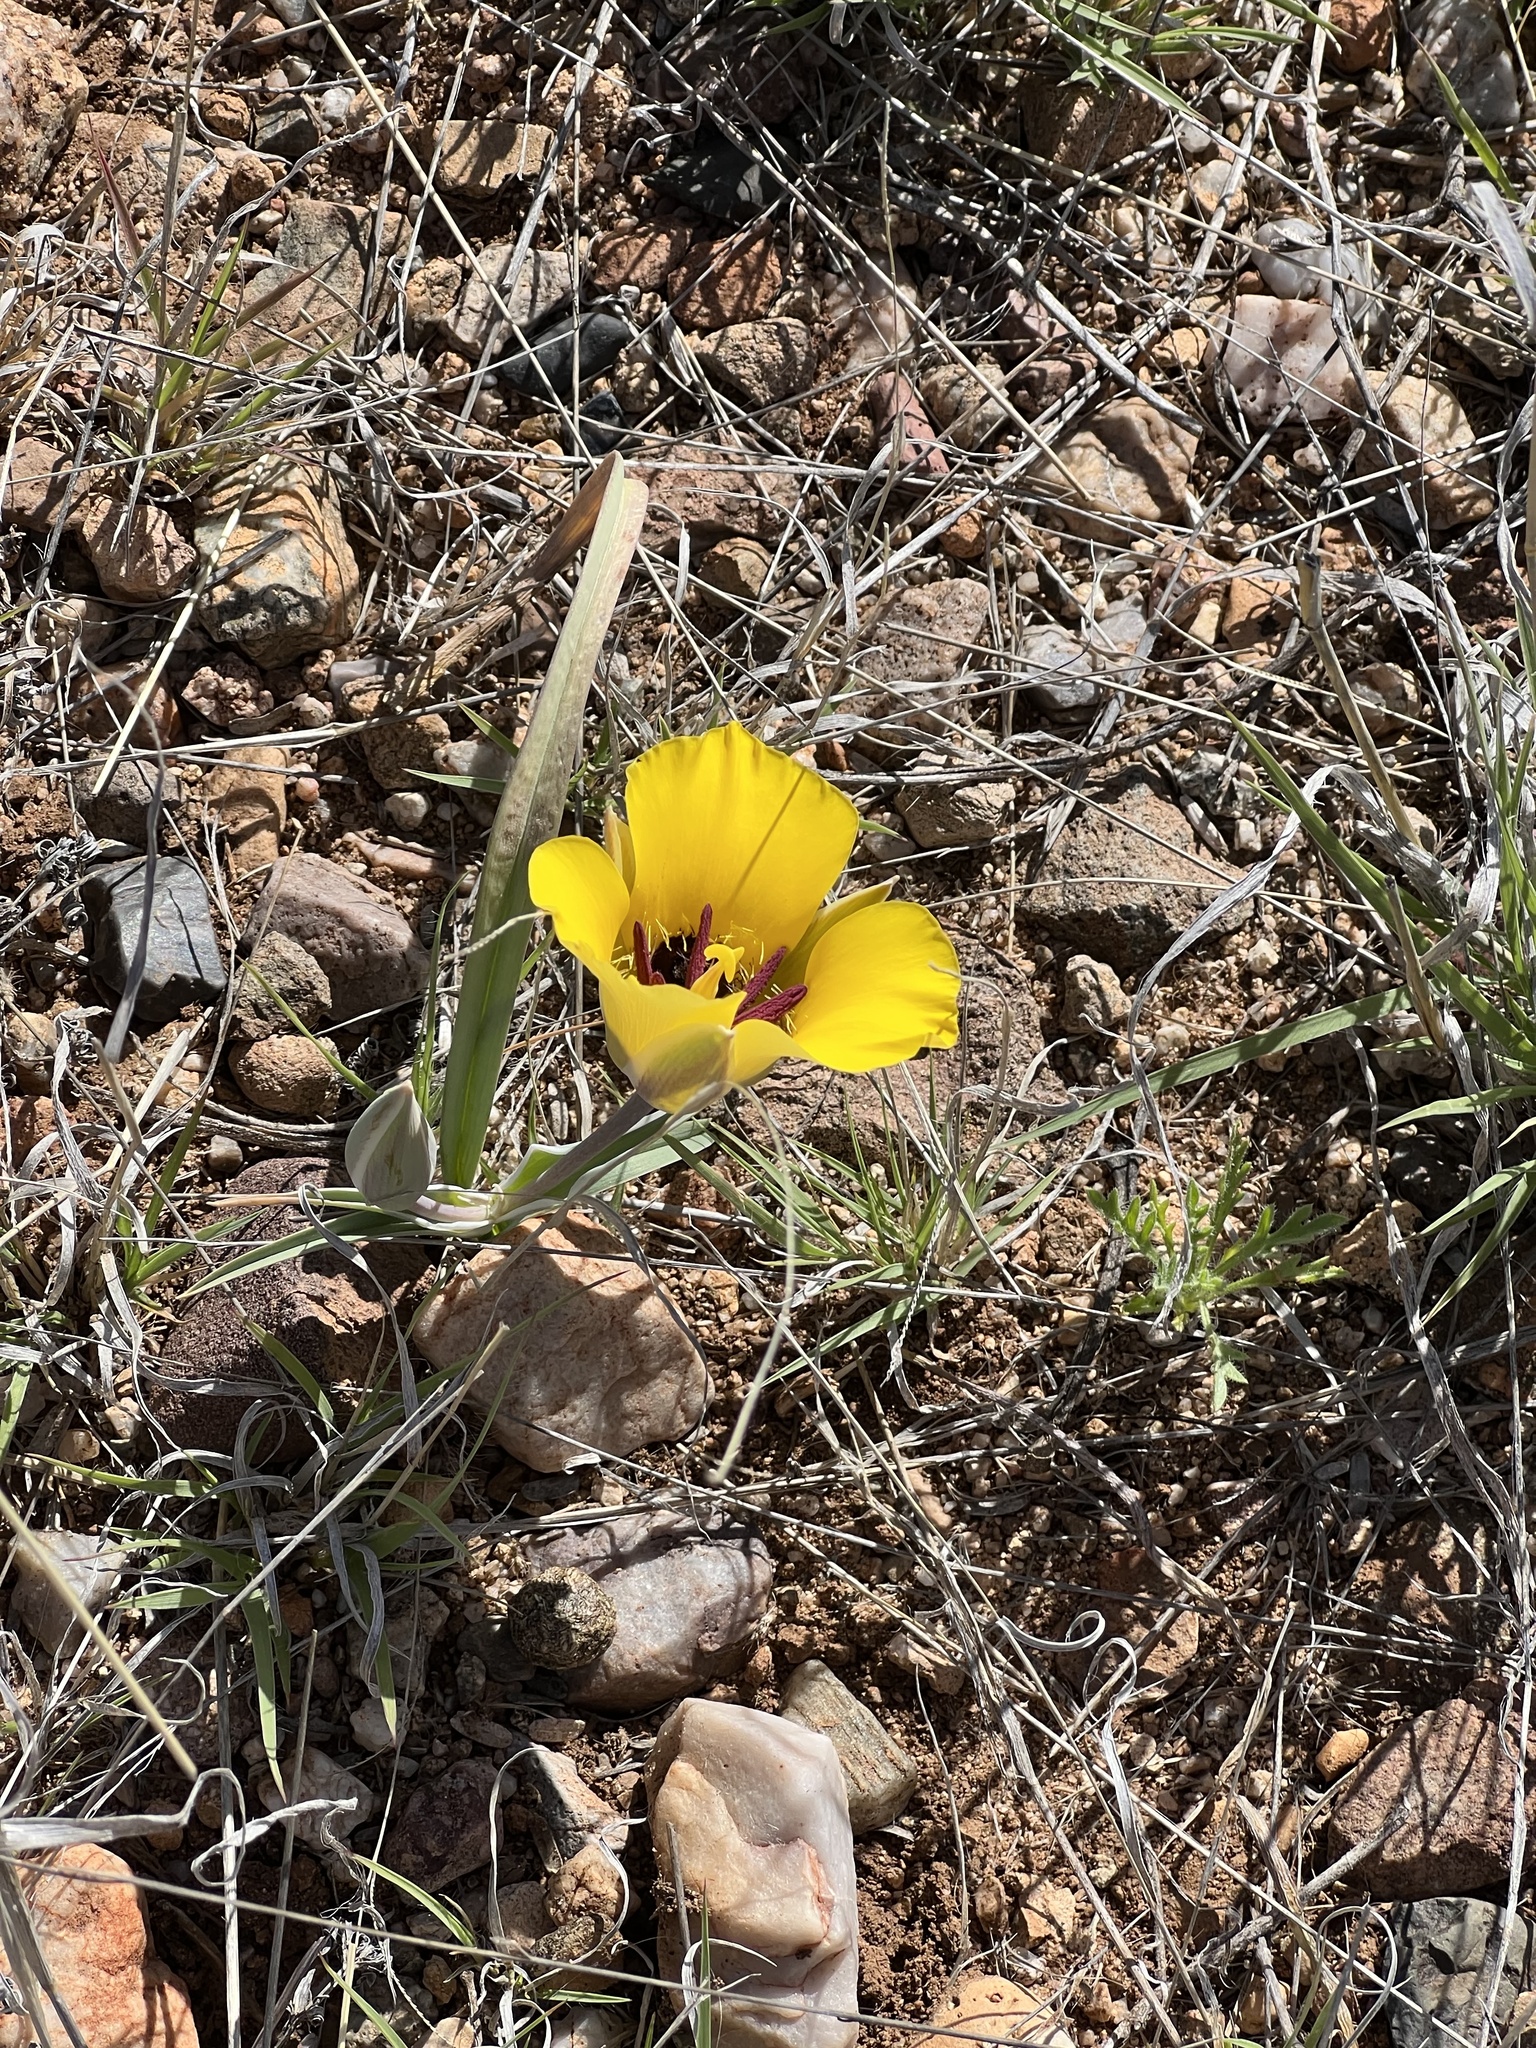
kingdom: Plantae
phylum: Tracheophyta
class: Liliopsida
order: Liliales
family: Liliaceae
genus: Calochortus
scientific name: Calochortus kennedyi
